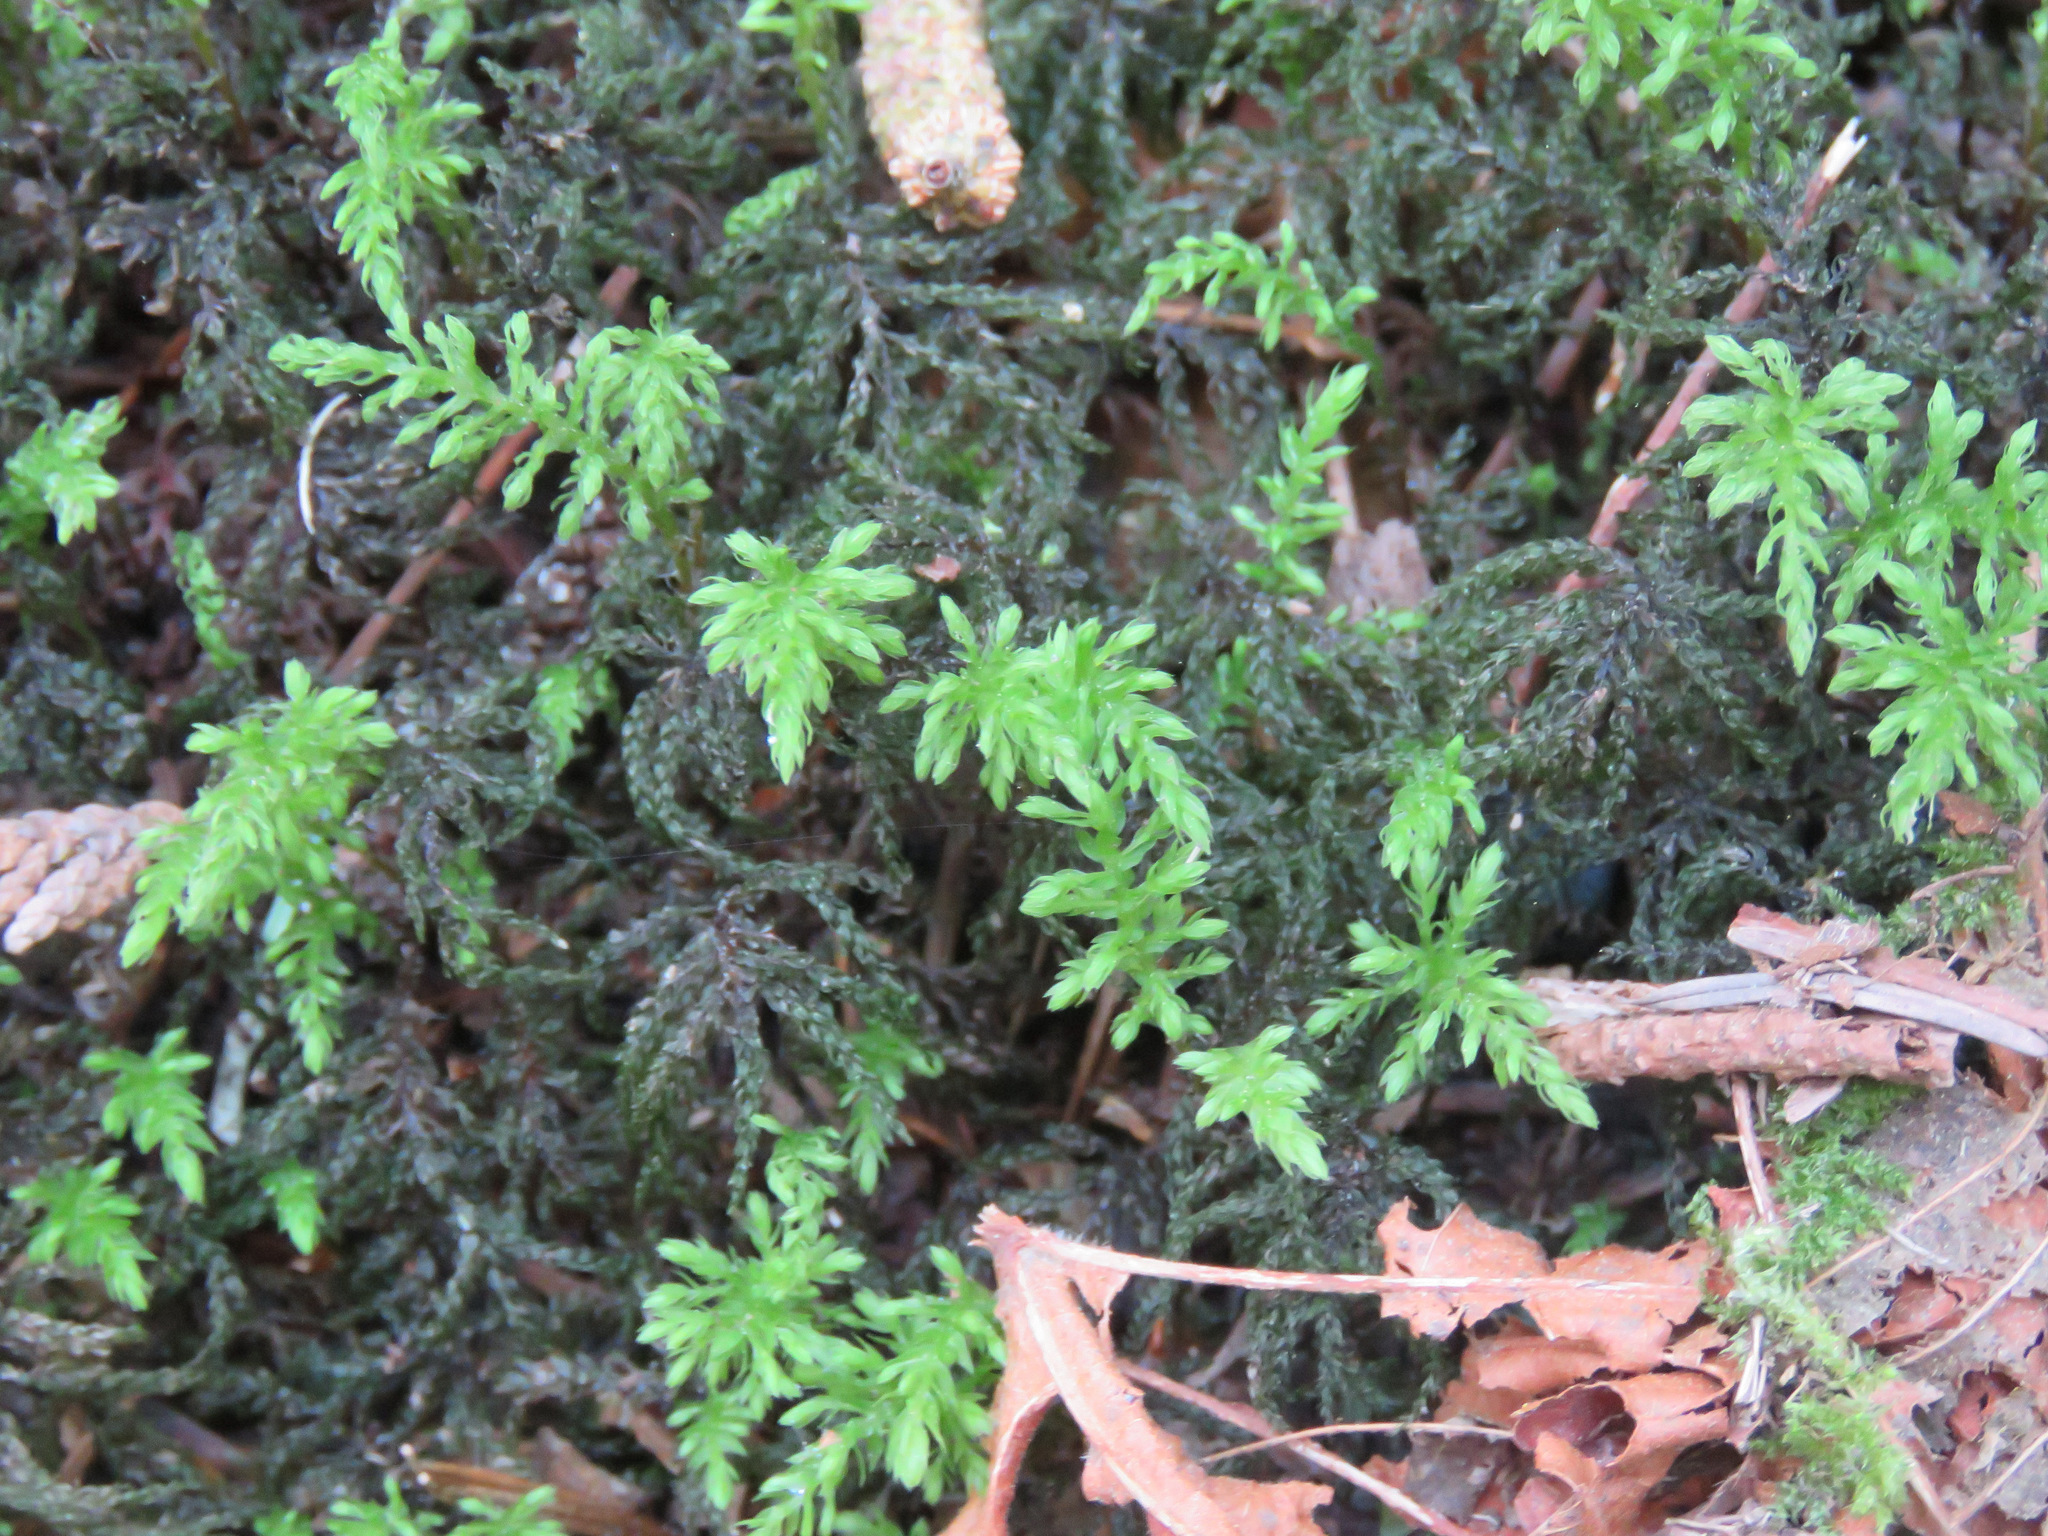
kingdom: Plantae
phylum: Bryophyta
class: Bryopsida
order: Bryales
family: Mniaceae
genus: Leucolepis
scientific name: Leucolepis acanthoneura
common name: Leucolepis umbrella moss
